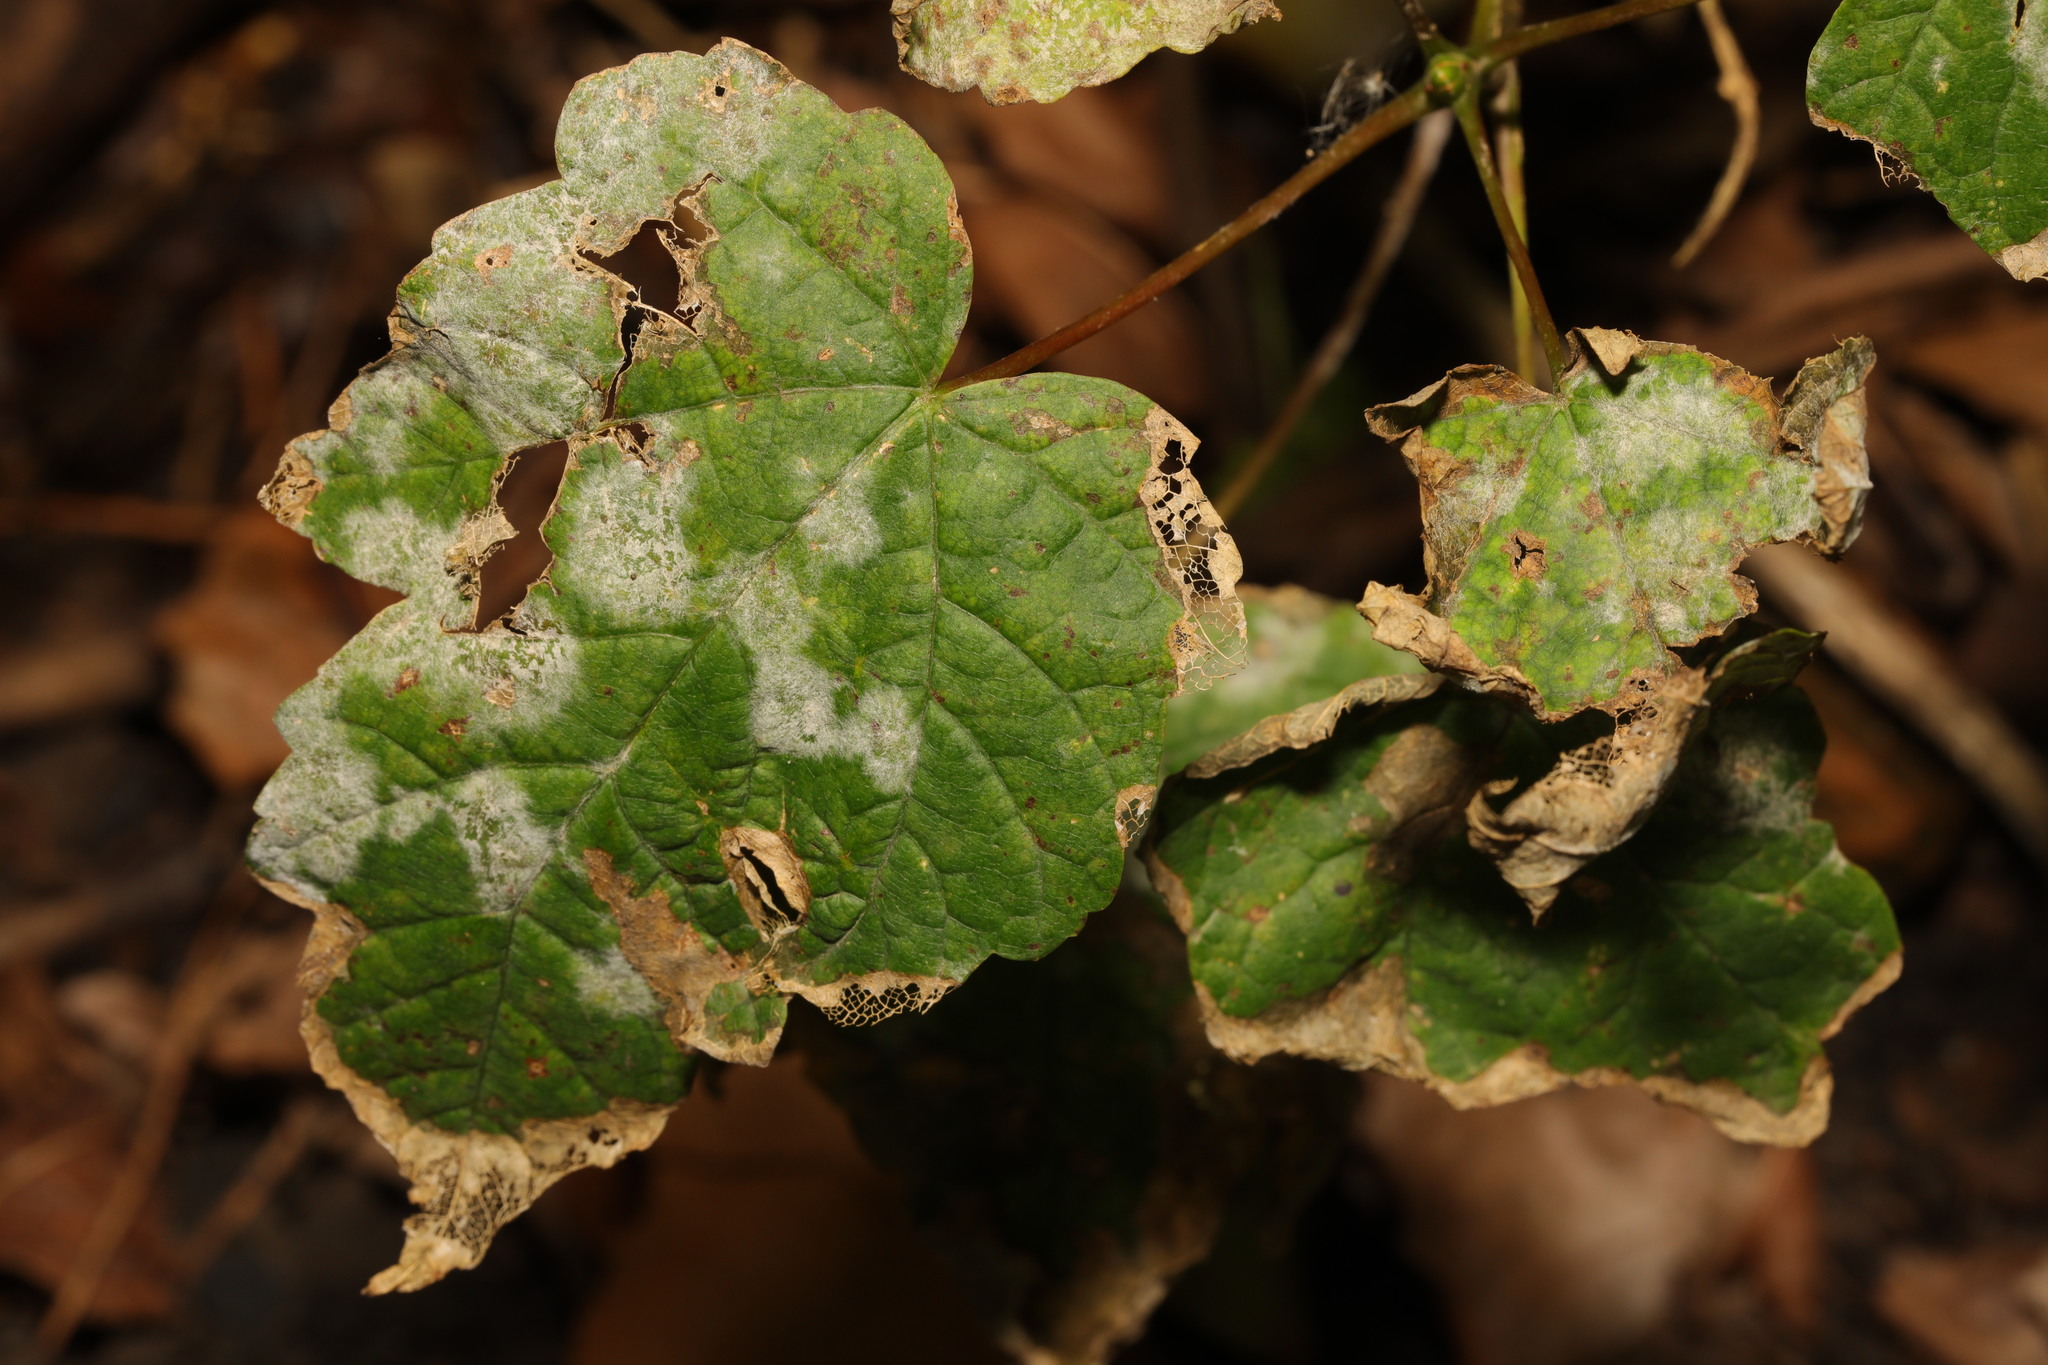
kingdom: Fungi
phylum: Ascomycota
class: Leotiomycetes
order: Helotiales
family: Erysiphaceae
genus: Sawadaea
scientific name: Sawadaea bicornis
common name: Maple mildew
